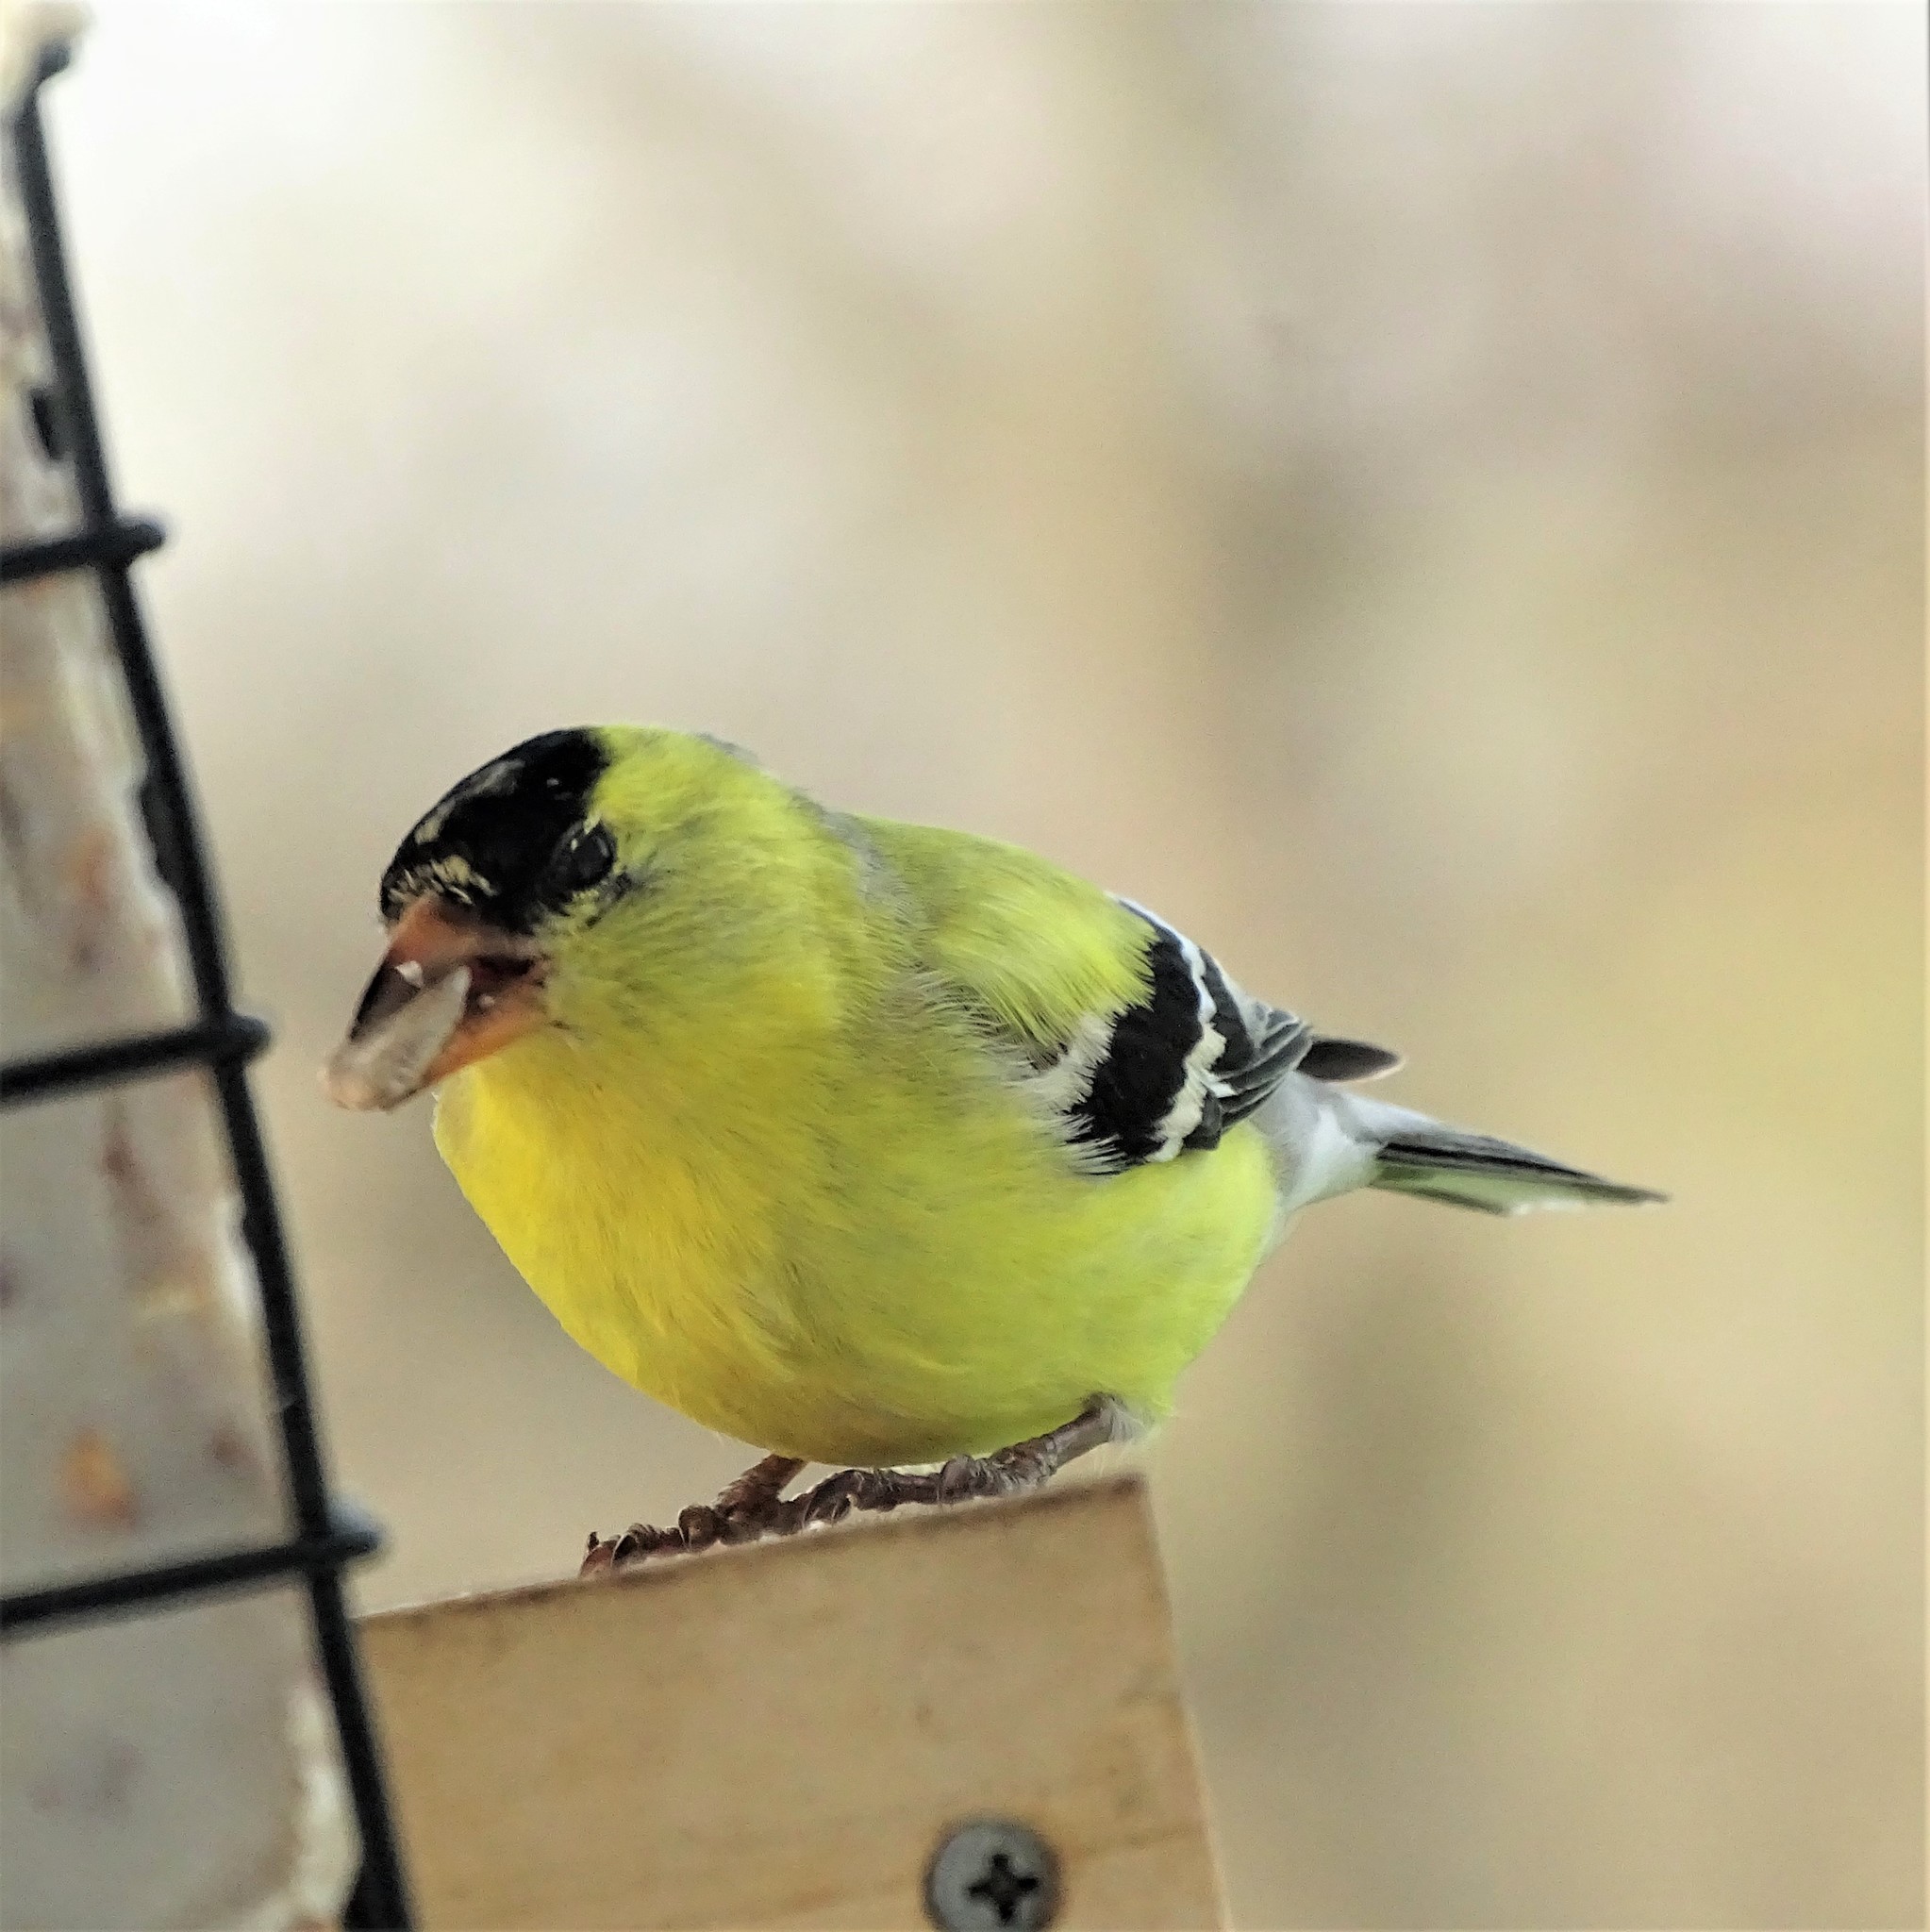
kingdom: Animalia
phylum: Chordata
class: Aves
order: Passeriformes
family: Fringillidae
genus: Spinus
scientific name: Spinus tristis
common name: American goldfinch
